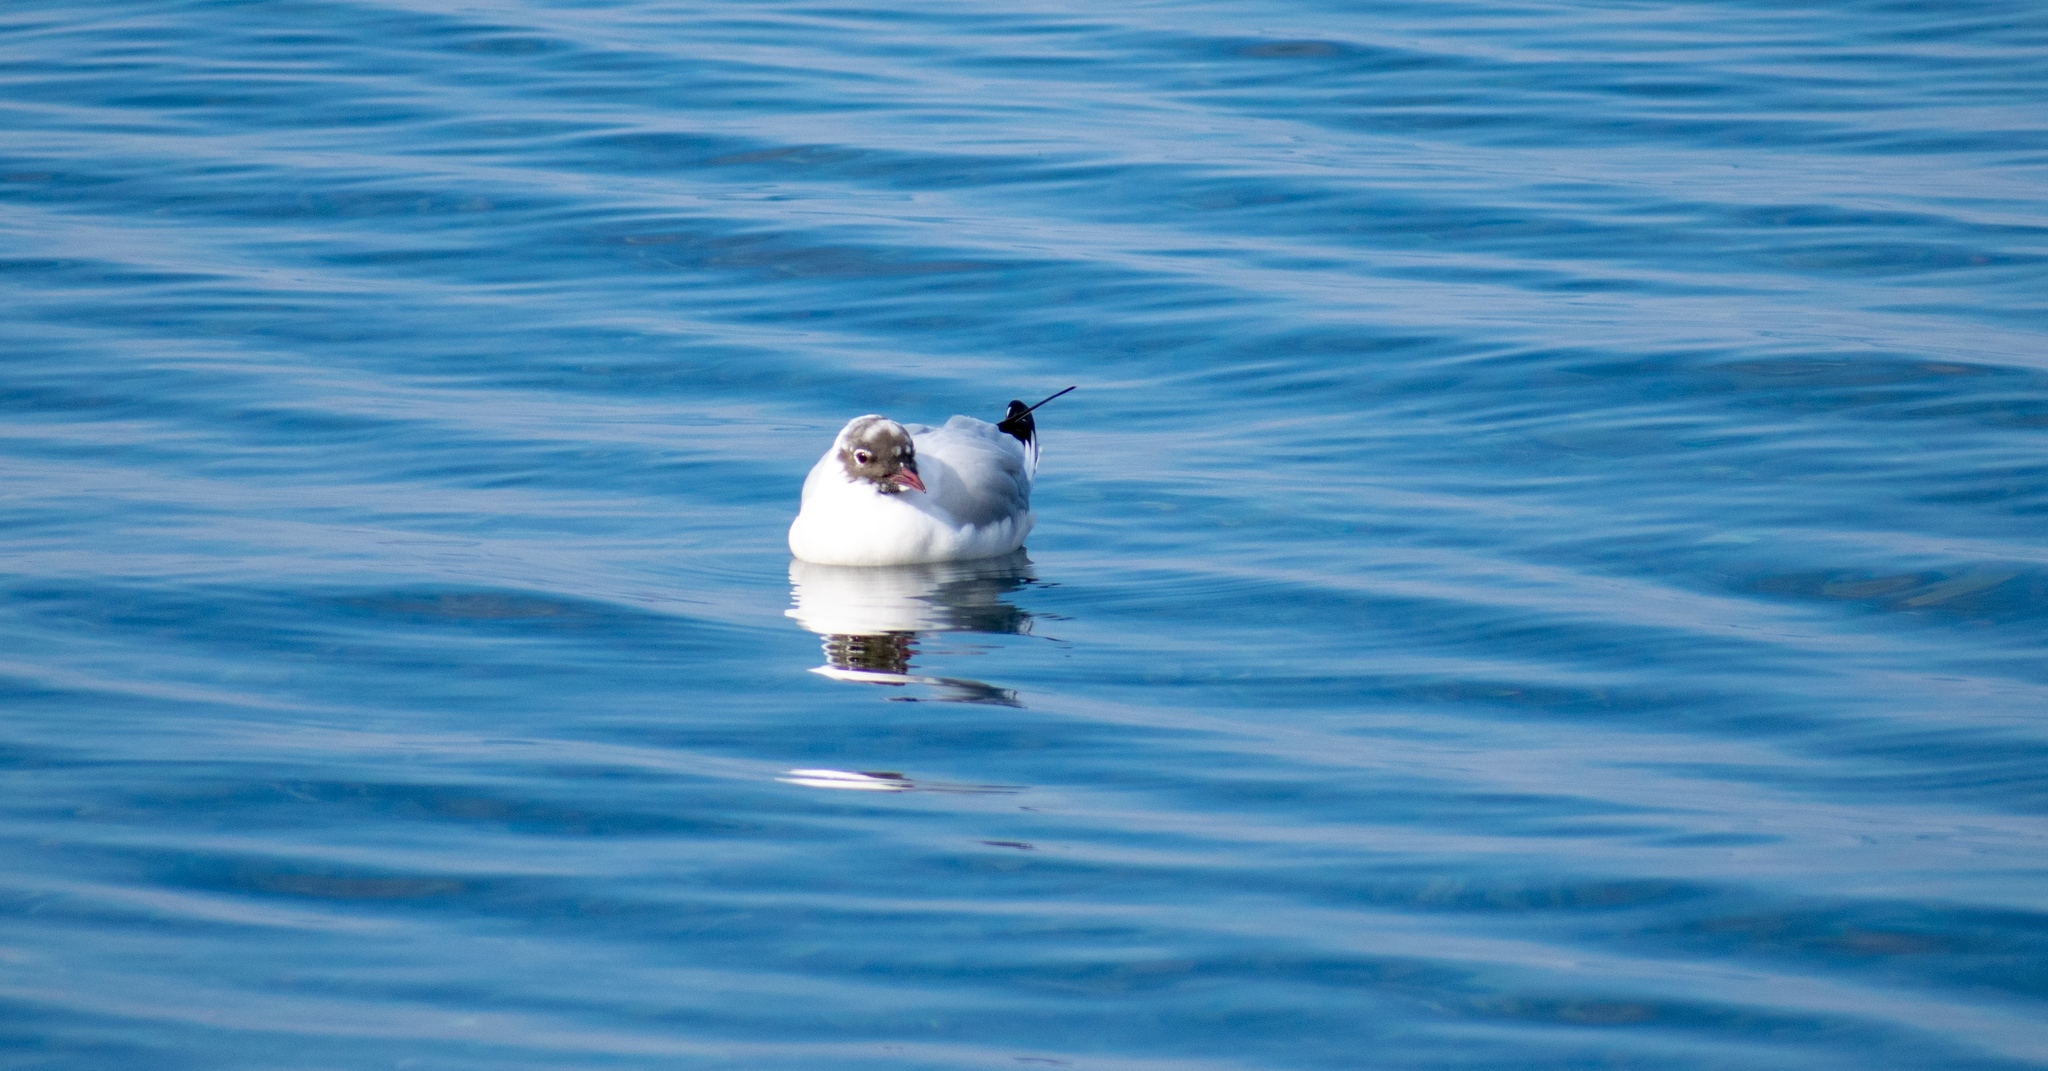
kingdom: Animalia
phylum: Chordata
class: Aves
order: Charadriiformes
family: Laridae
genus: Chroicocephalus
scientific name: Chroicocephalus ridibundus
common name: Black-headed gull
